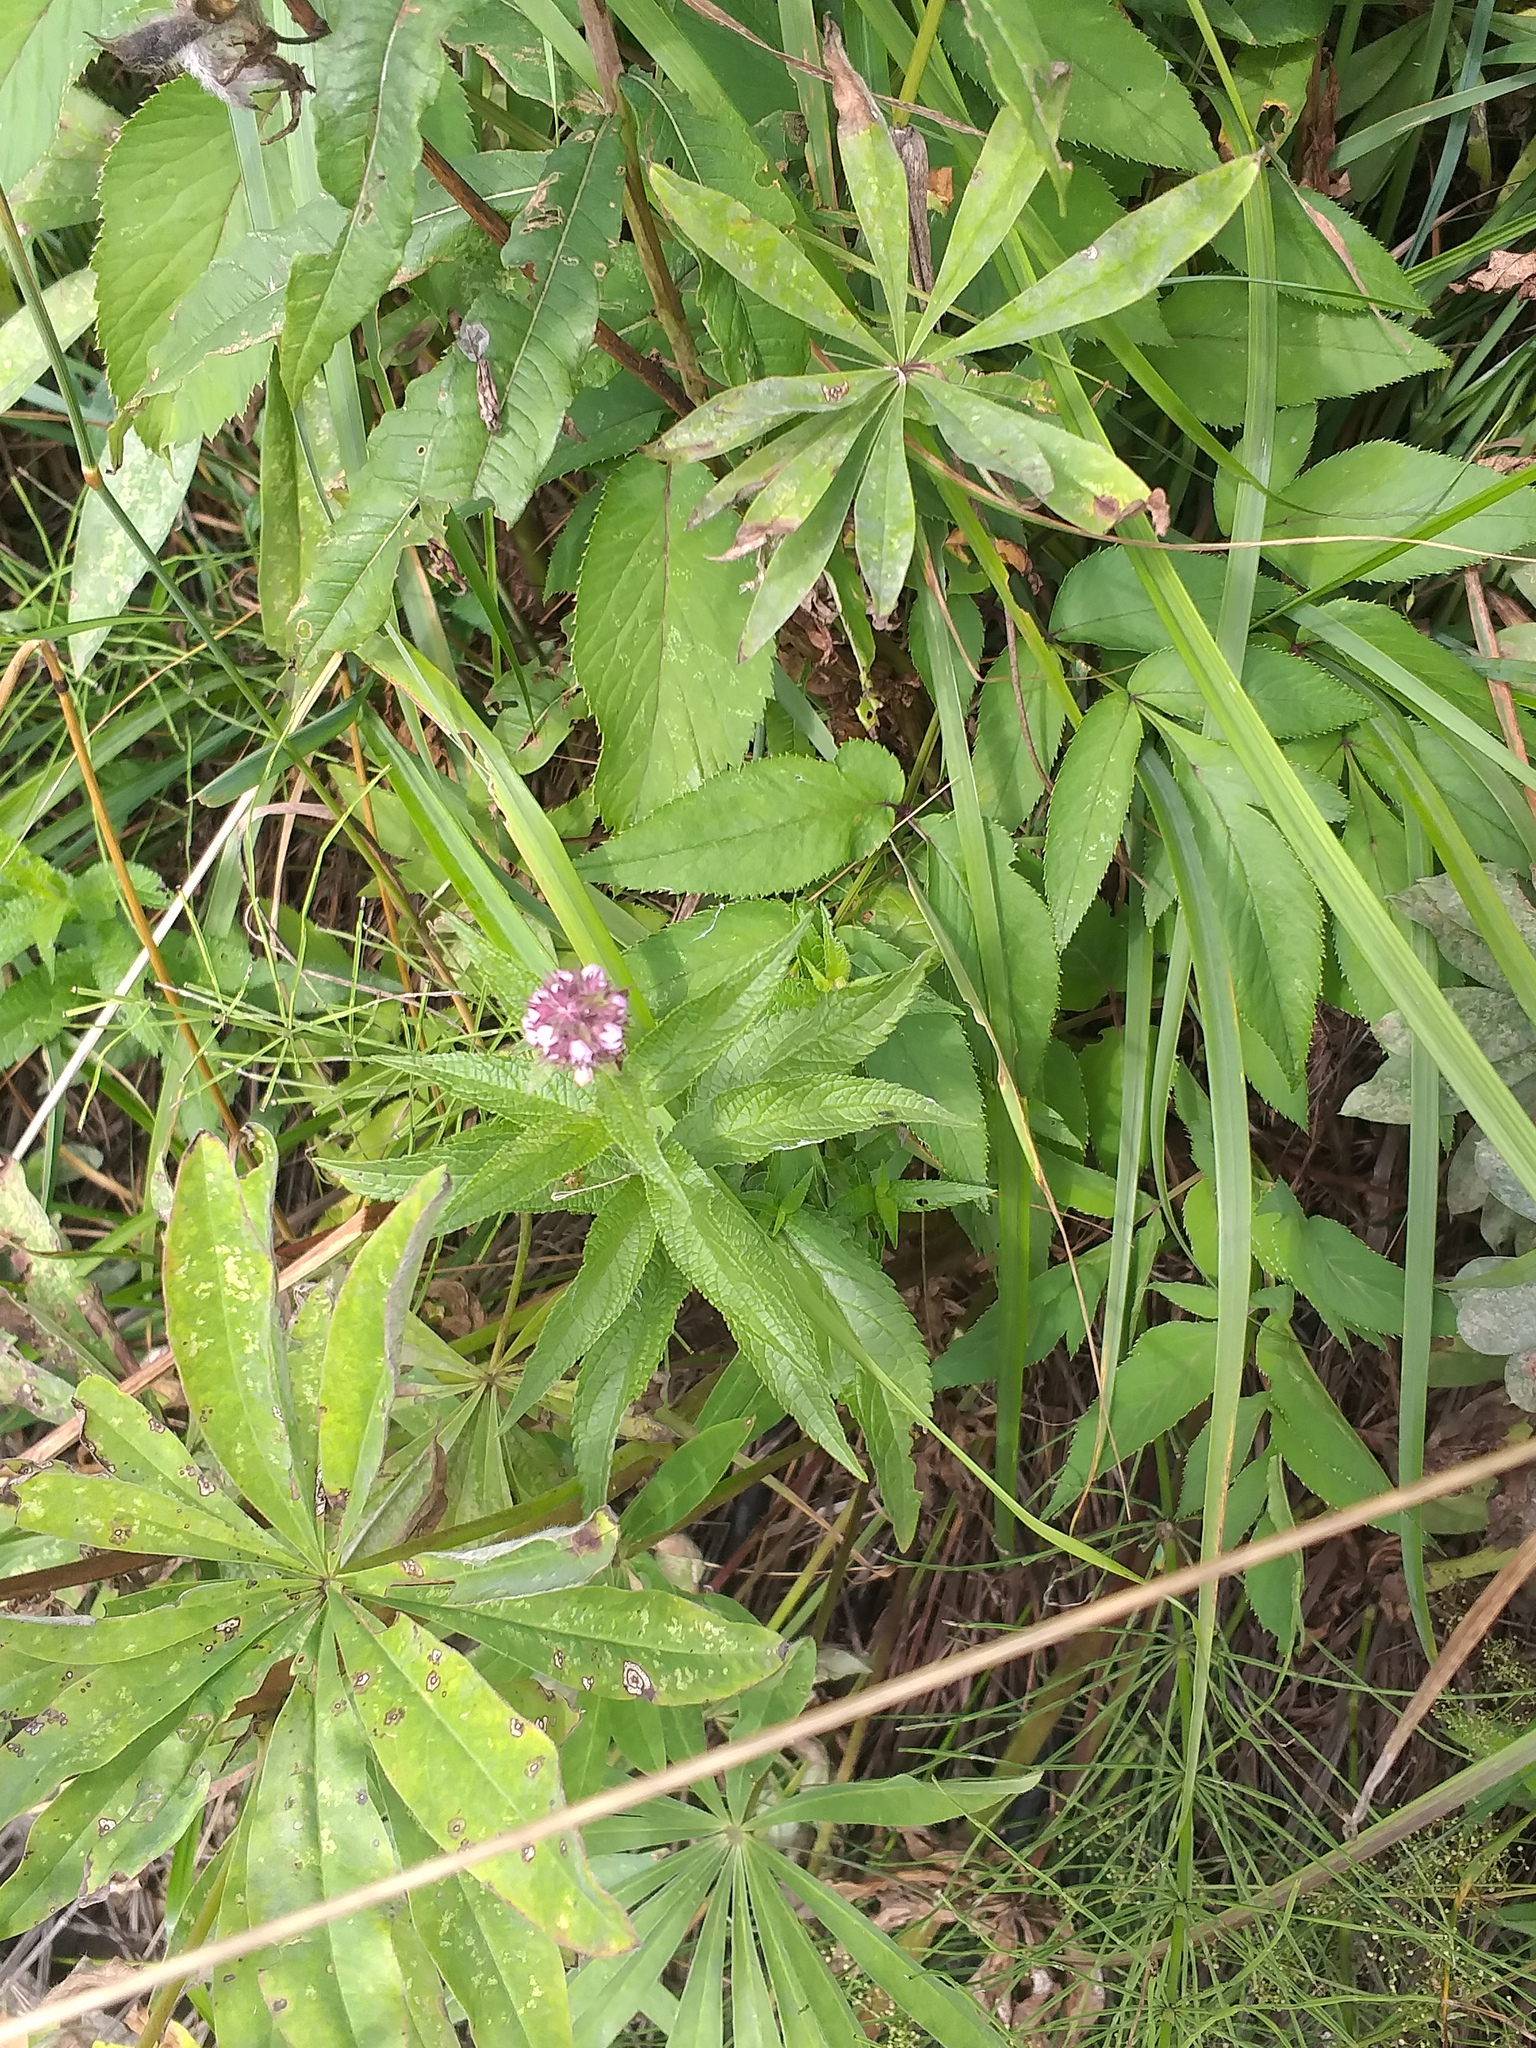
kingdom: Plantae
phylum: Tracheophyta
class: Magnoliopsida
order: Lamiales
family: Lamiaceae
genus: Stachys
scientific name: Stachys palustris
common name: Marsh woundwort
